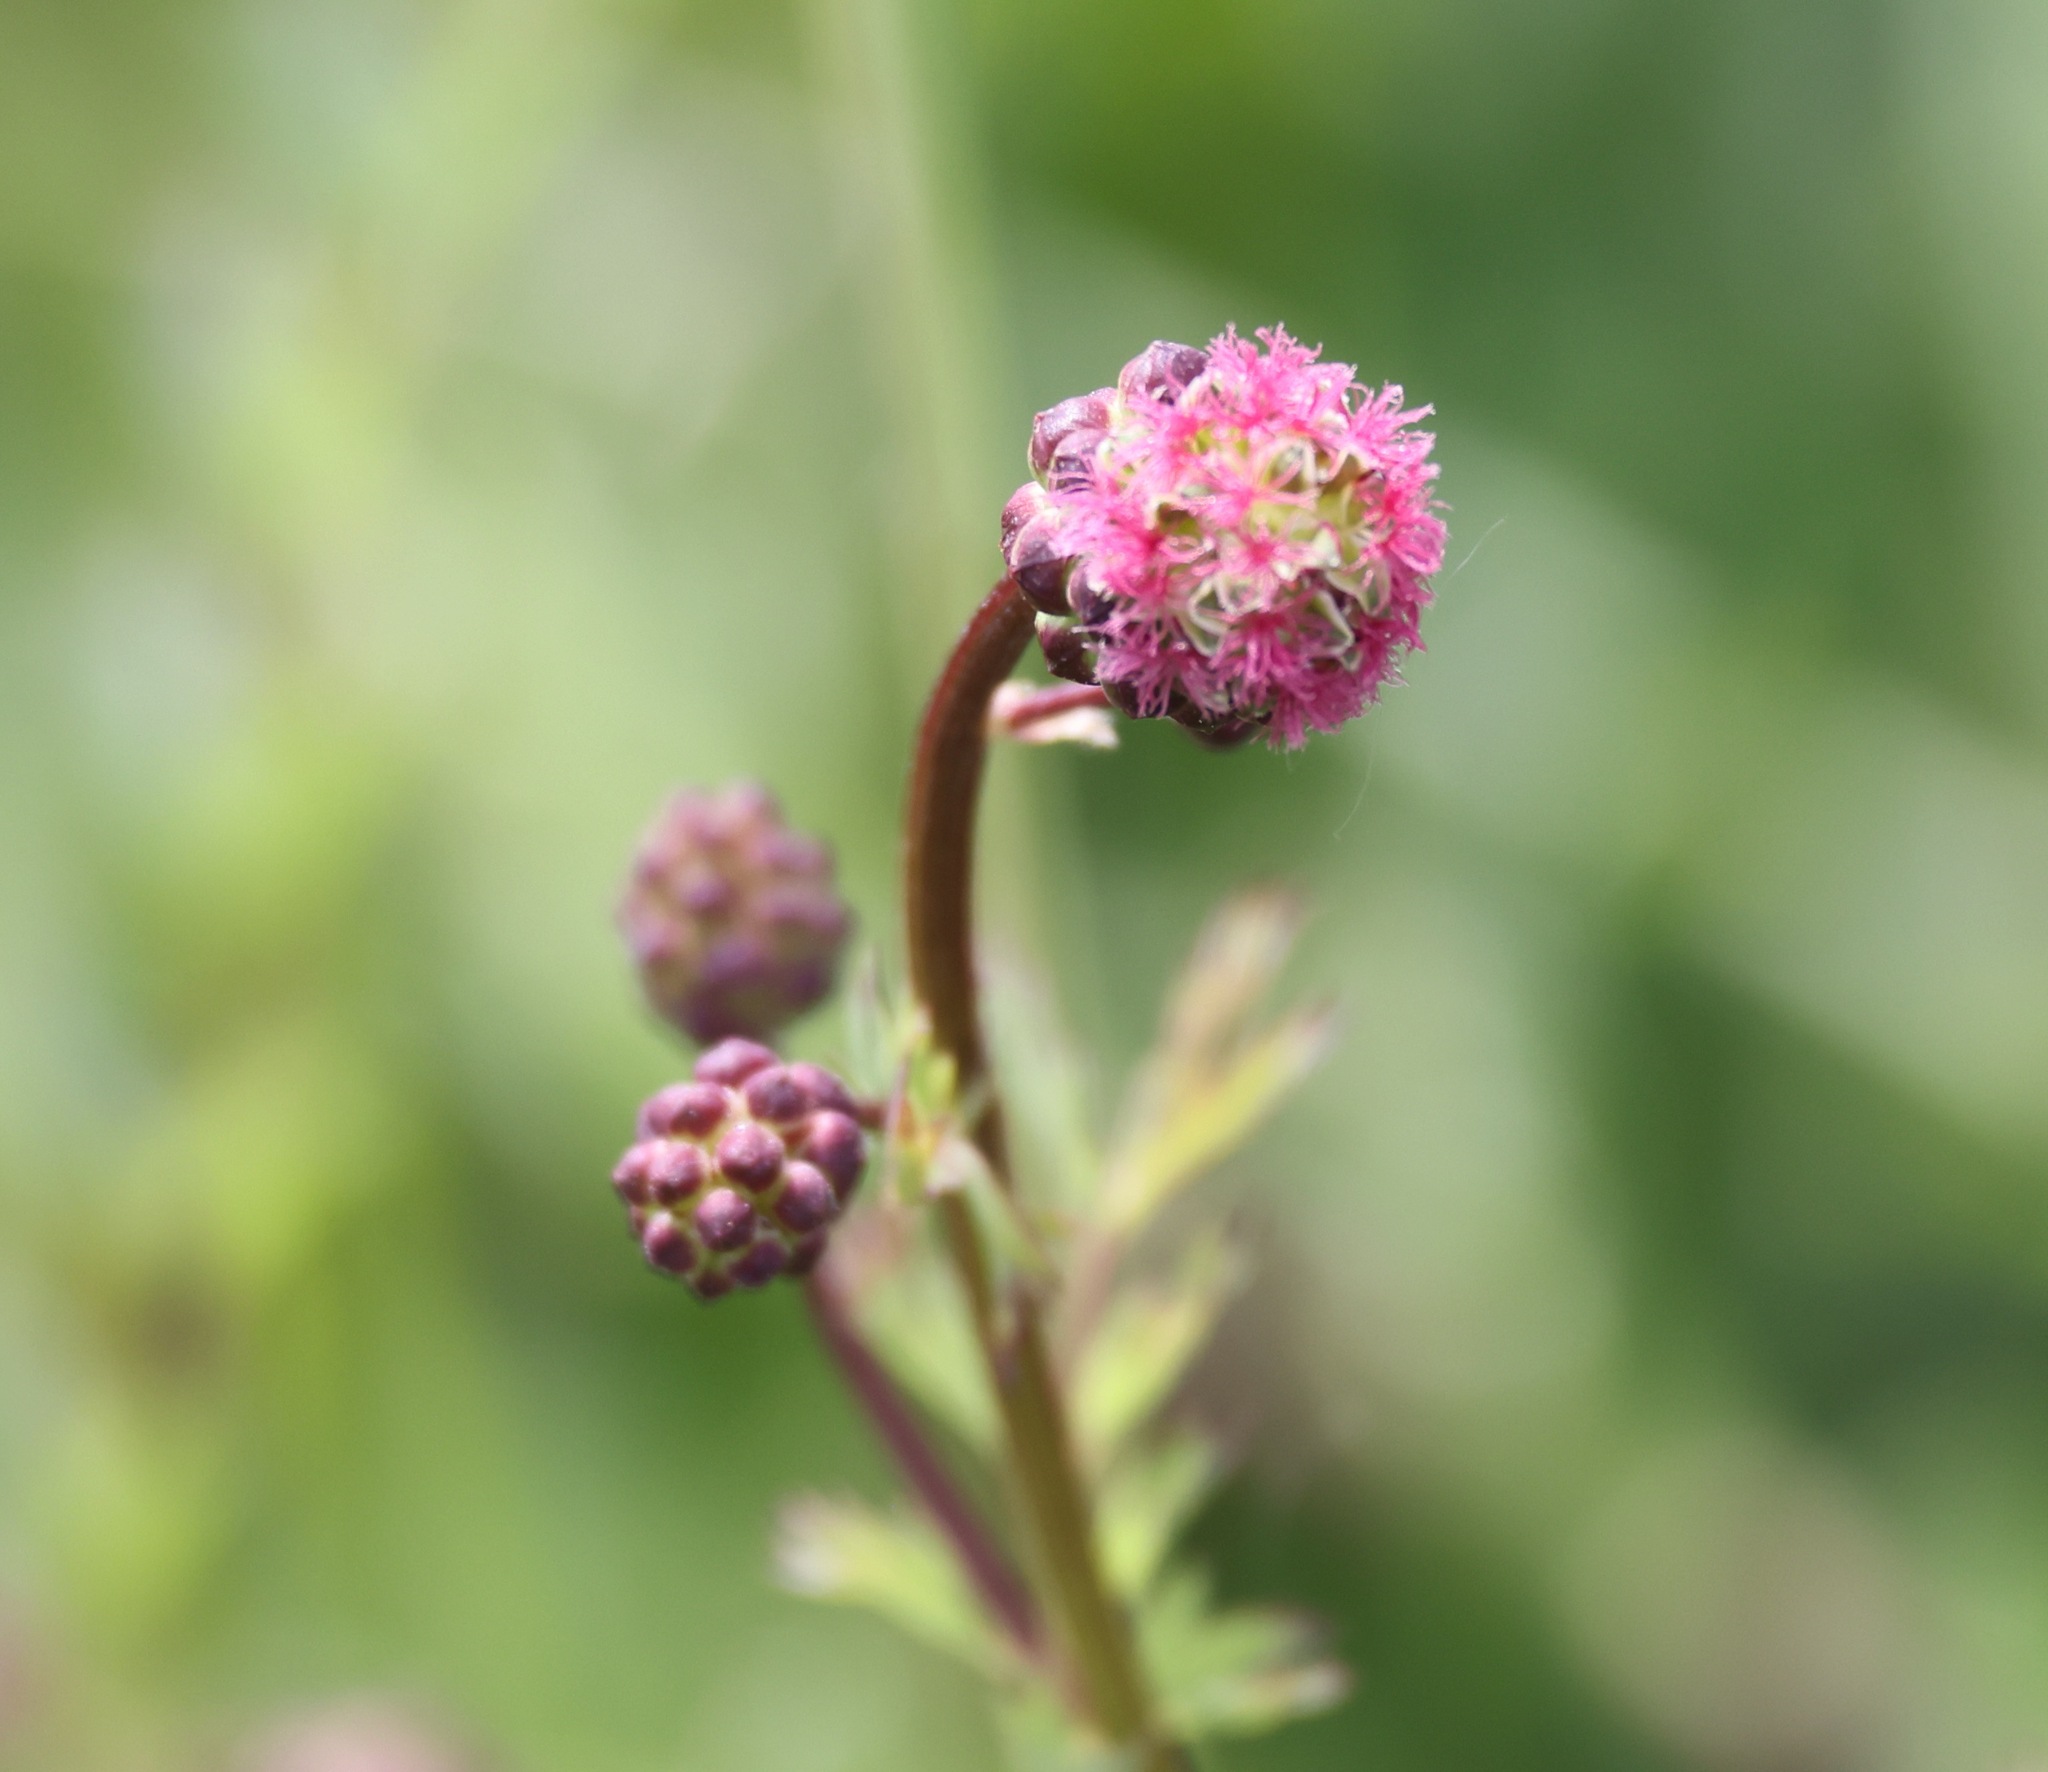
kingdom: Plantae
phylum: Tracheophyta
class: Magnoliopsida
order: Rosales
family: Rosaceae
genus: Poterium
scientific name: Poterium sanguisorba
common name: Salad burnet
